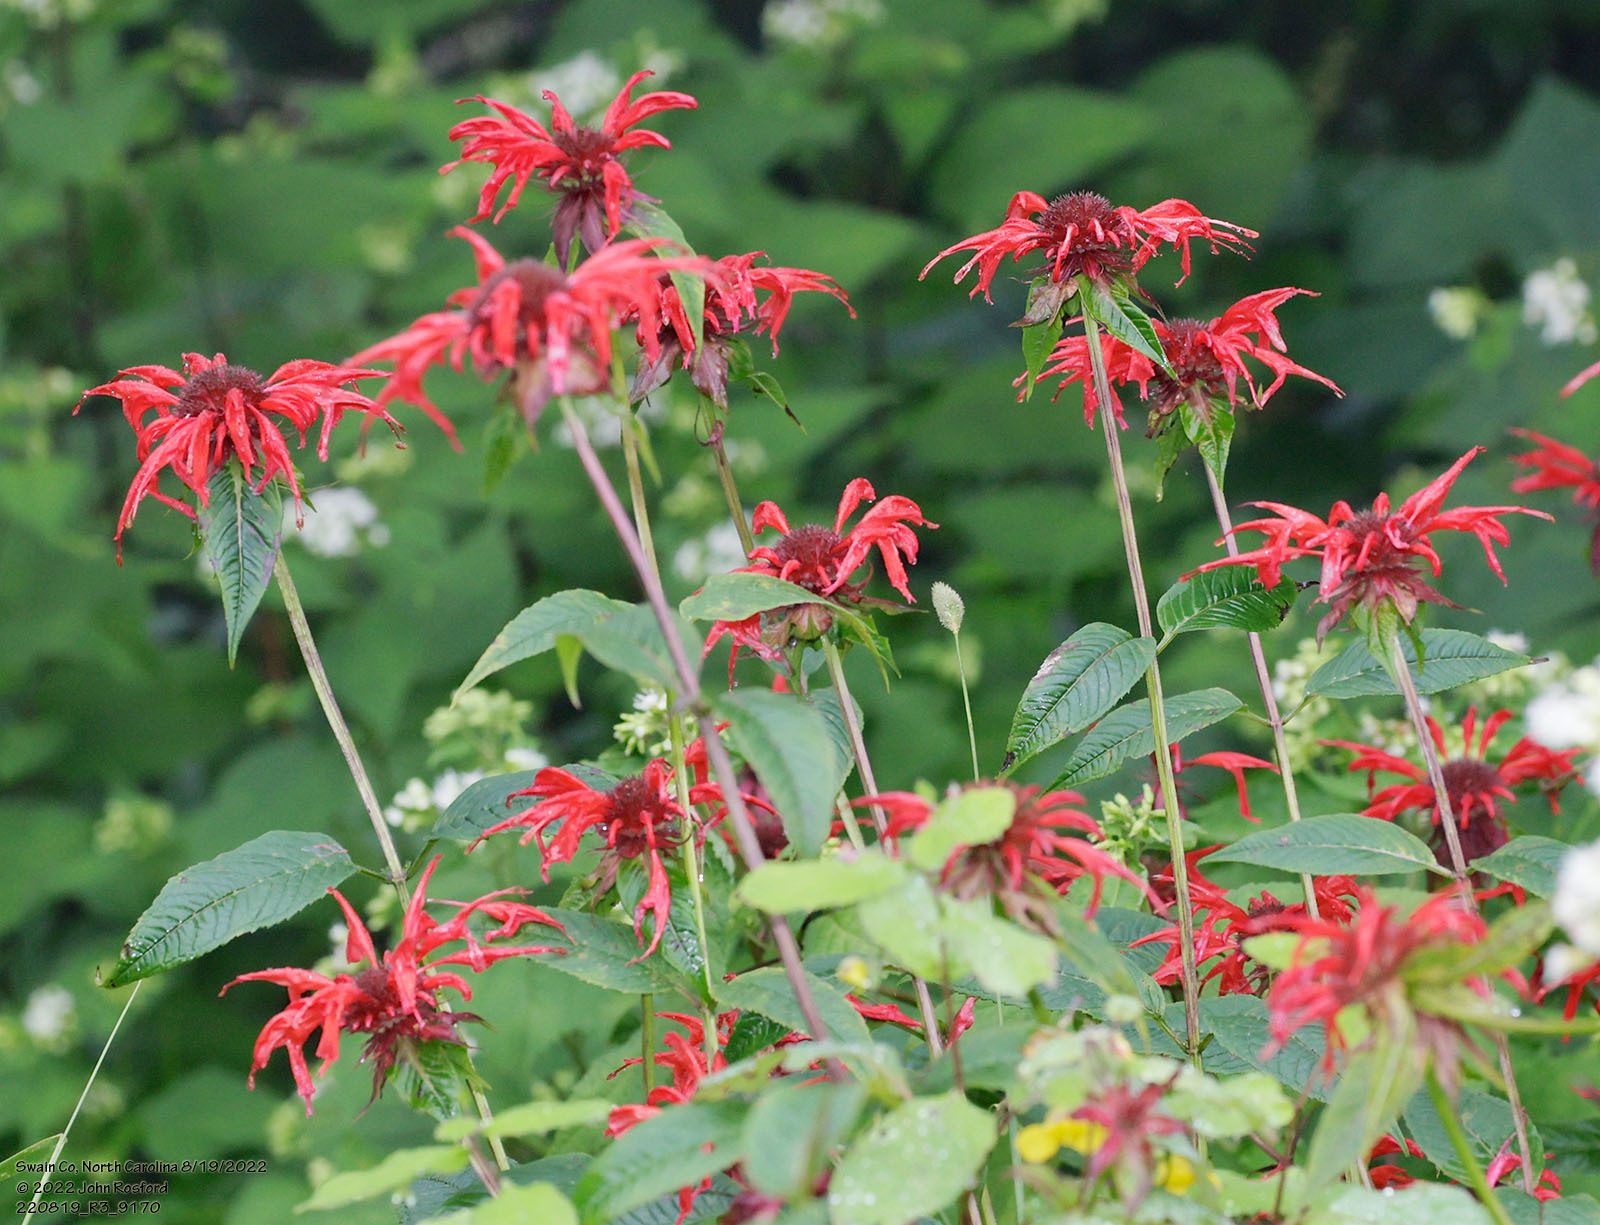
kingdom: Plantae
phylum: Tracheophyta
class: Magnoliopsida
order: Lamiales
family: Lamiaceae
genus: Monarda
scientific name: Monarda didyma
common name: Beebalm
